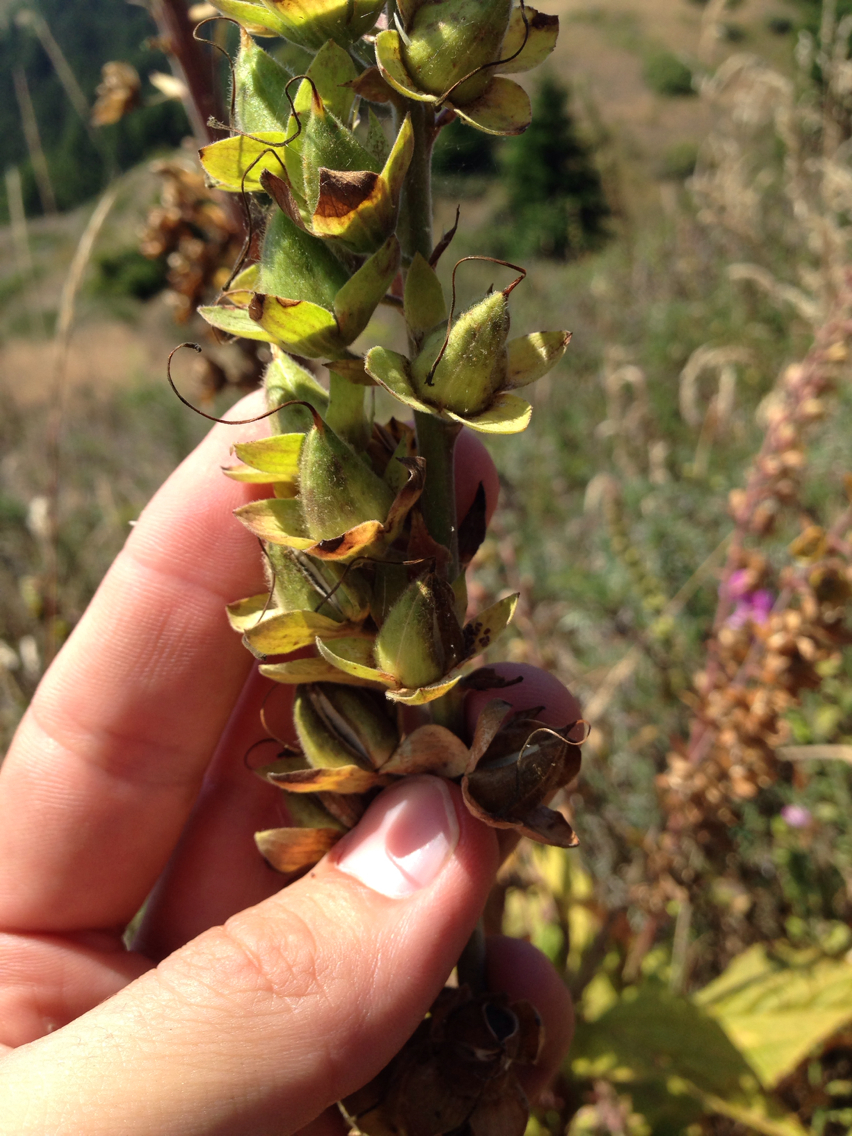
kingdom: Plantae
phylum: Tracheophyta
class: Magnoliopsida
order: Lamiales
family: Plantaginaceae
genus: Digitalis
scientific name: Digitalis purpurea
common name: Foxglove
